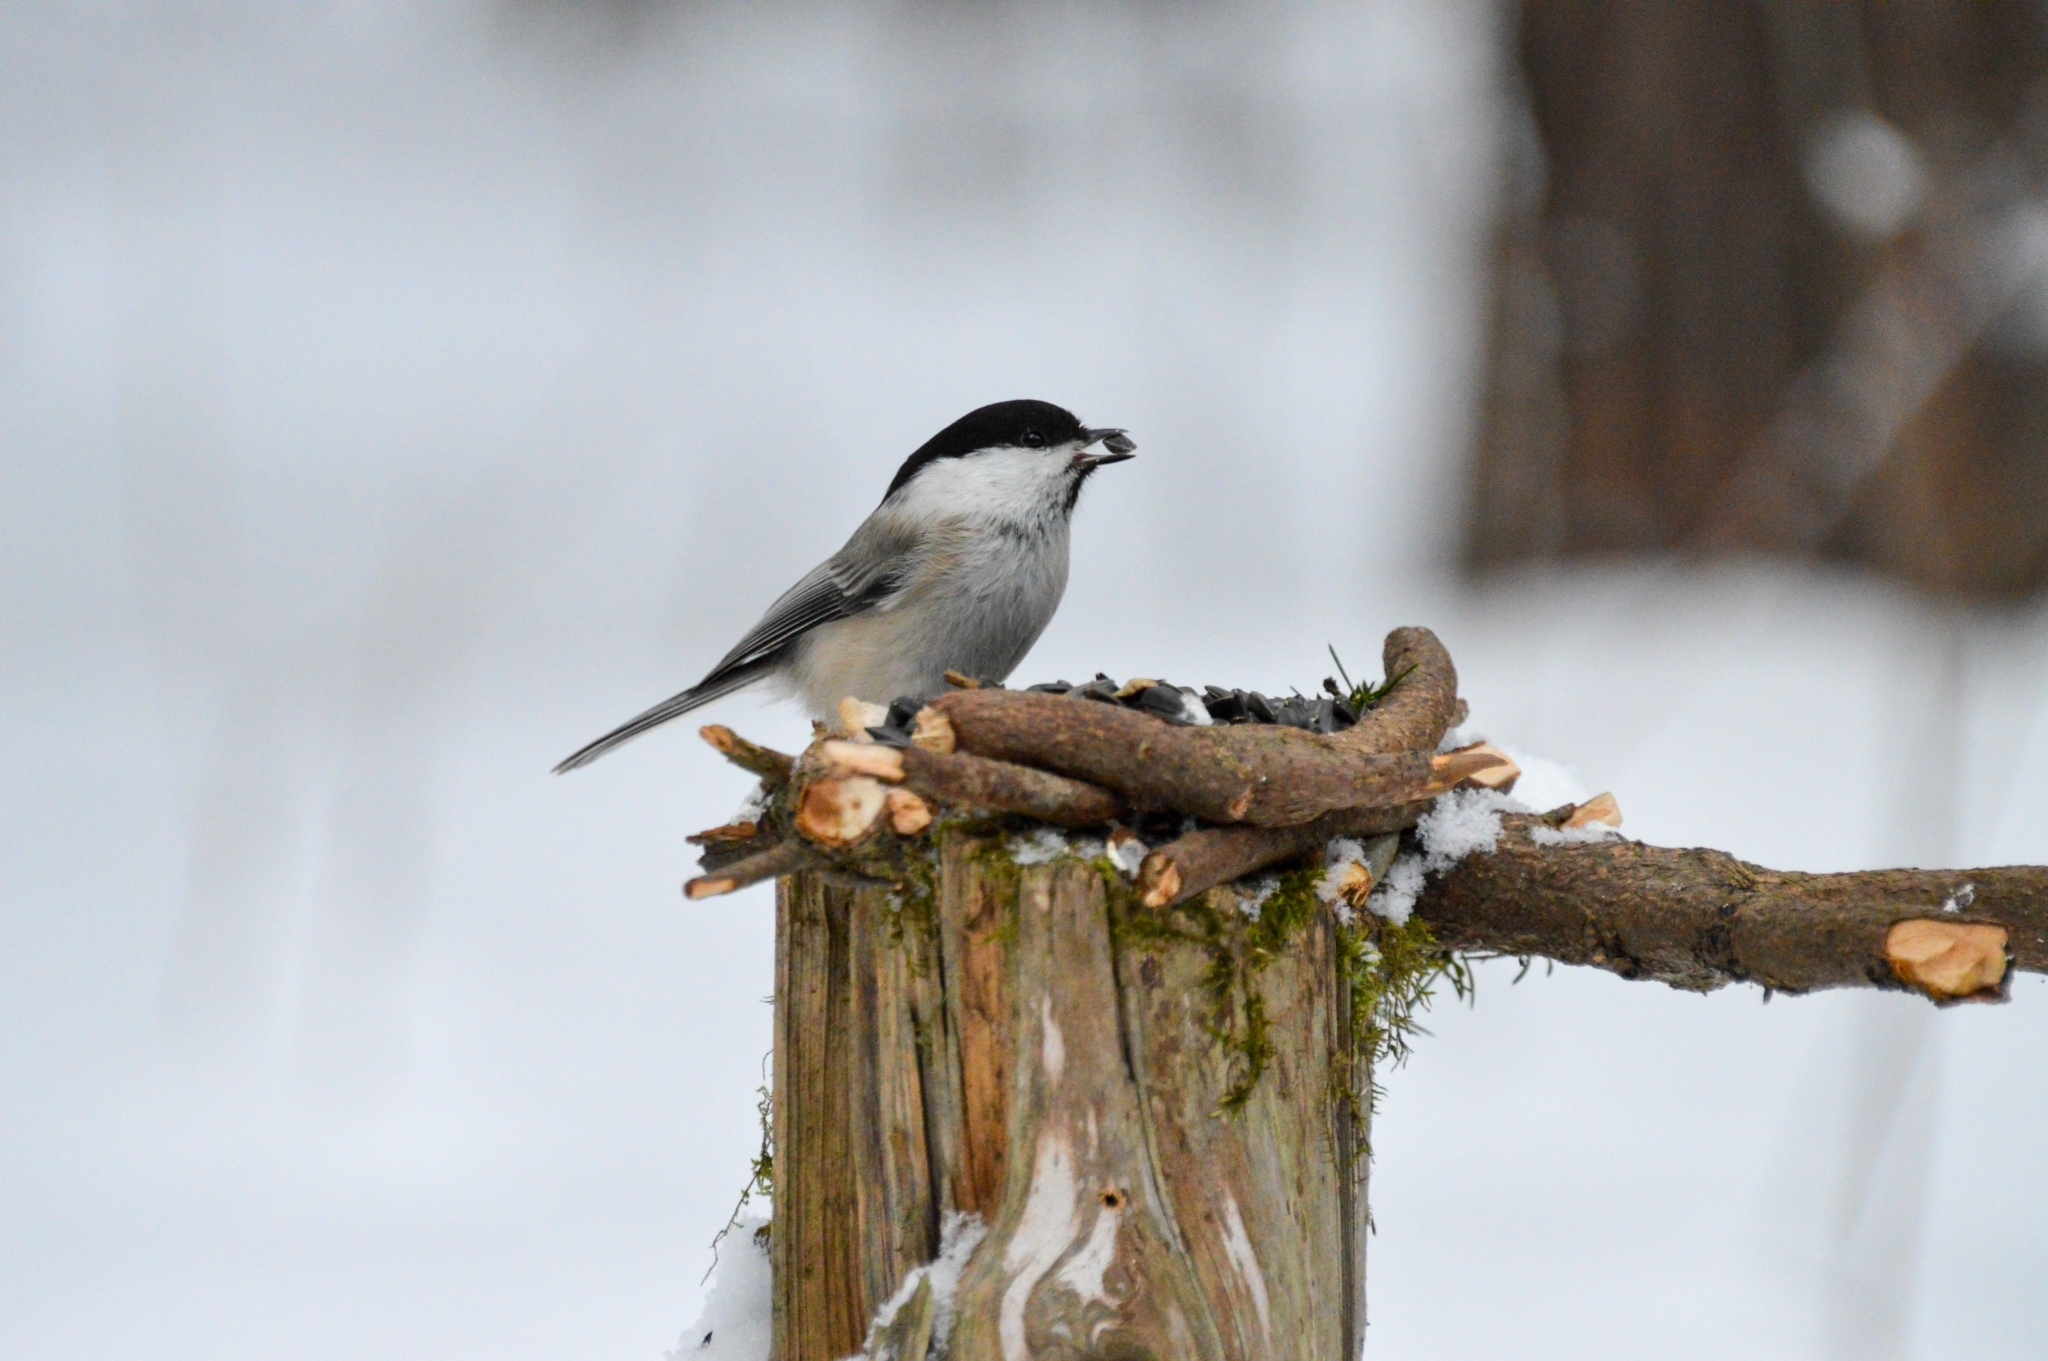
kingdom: Animalia
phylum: Chordata
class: Aves
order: Passeriformes
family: Paridae
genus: Poecile
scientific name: Poecile montanus
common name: Willow tit
